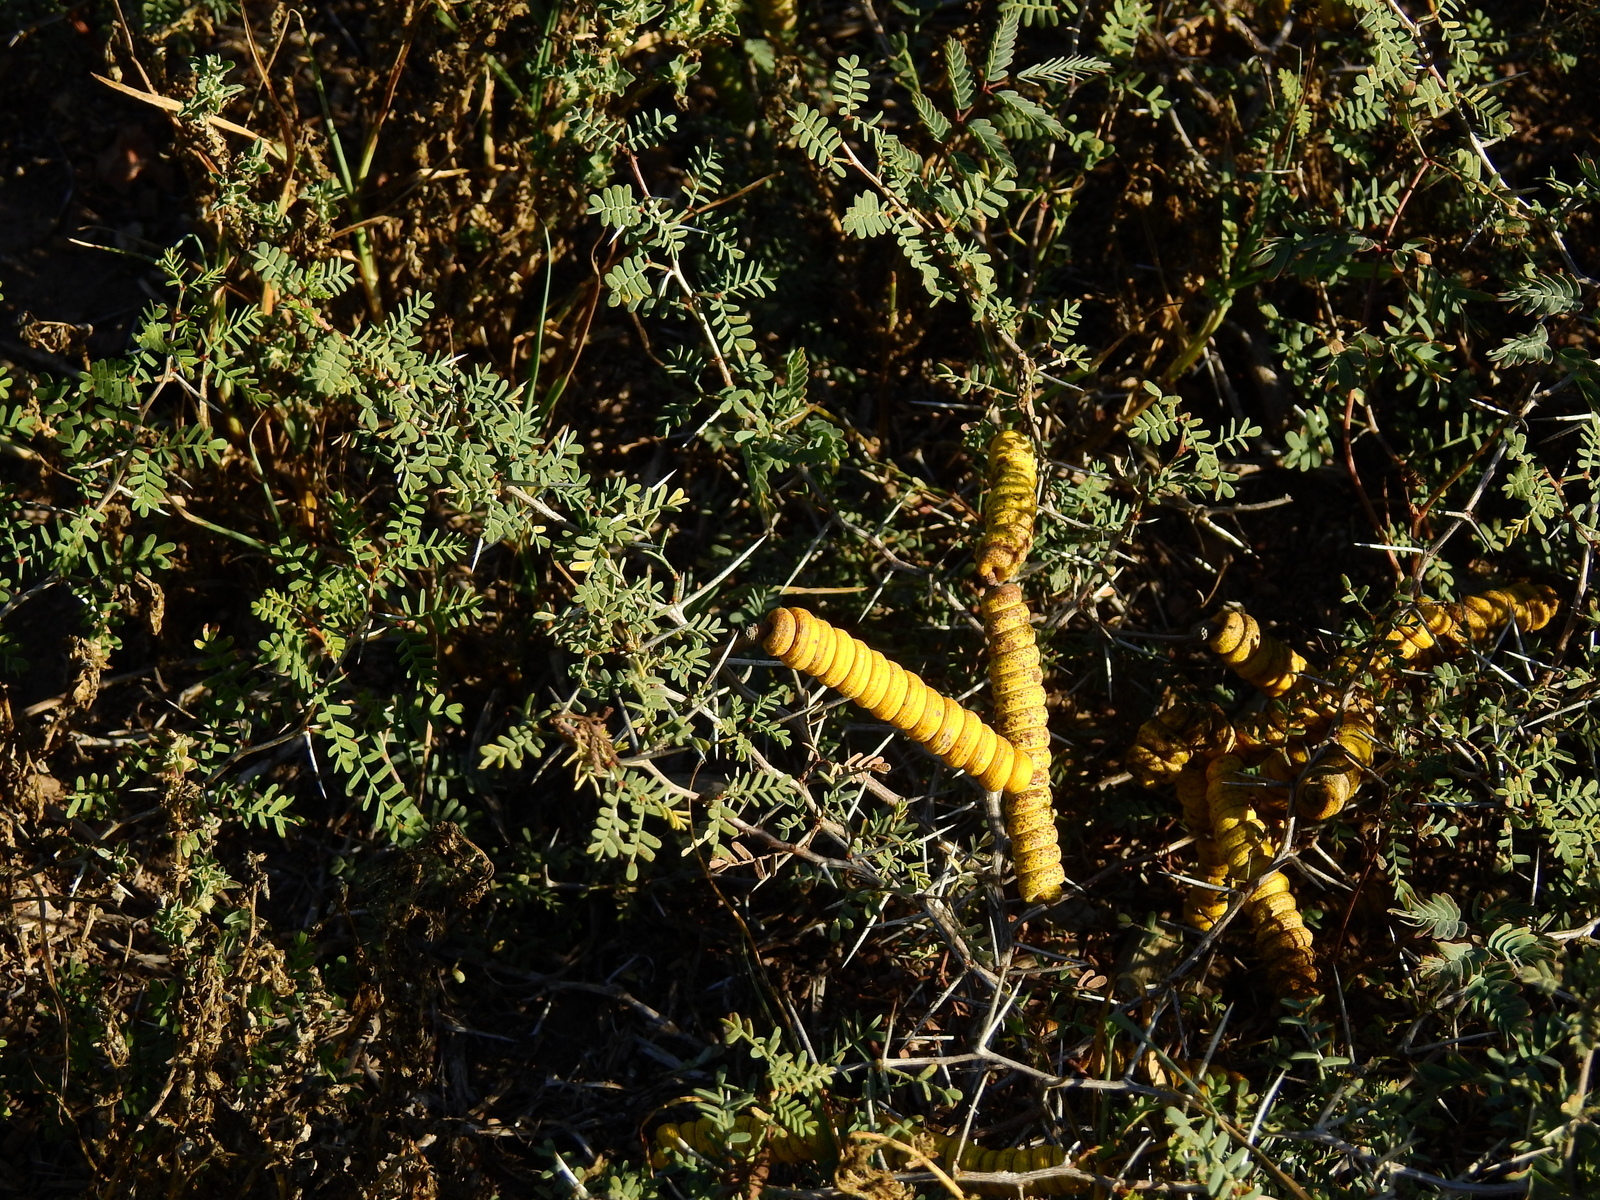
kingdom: Plantae
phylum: Tracheophyta
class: Magnoliopsida
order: Fabales
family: Fabaceae
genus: Prosopis
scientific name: Prosopis strombulifera
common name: Creeping mesquite
